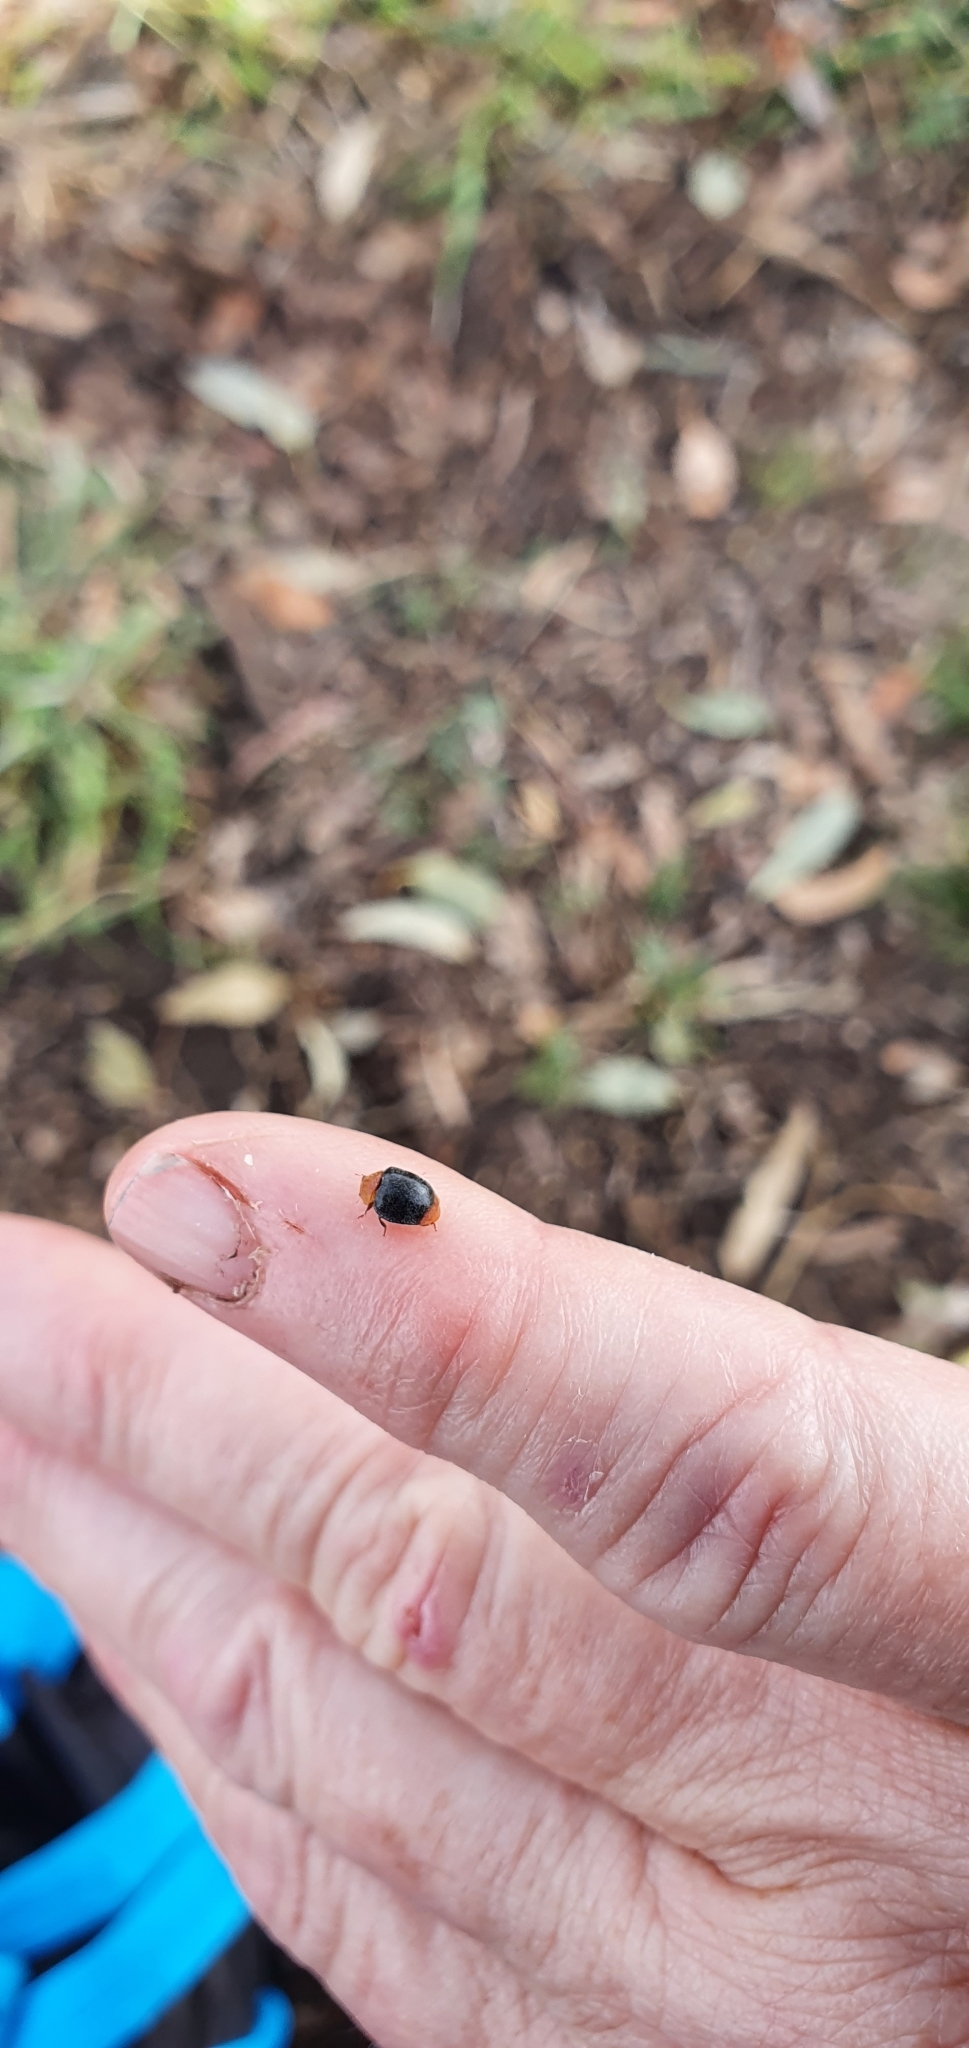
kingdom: Animalia
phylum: Arthropoda
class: Insecta
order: Coleoptera
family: Coccinellidae
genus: Cryptolaemus
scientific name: Cryptolaemus montrouzieri
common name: Mealybug destroyer
